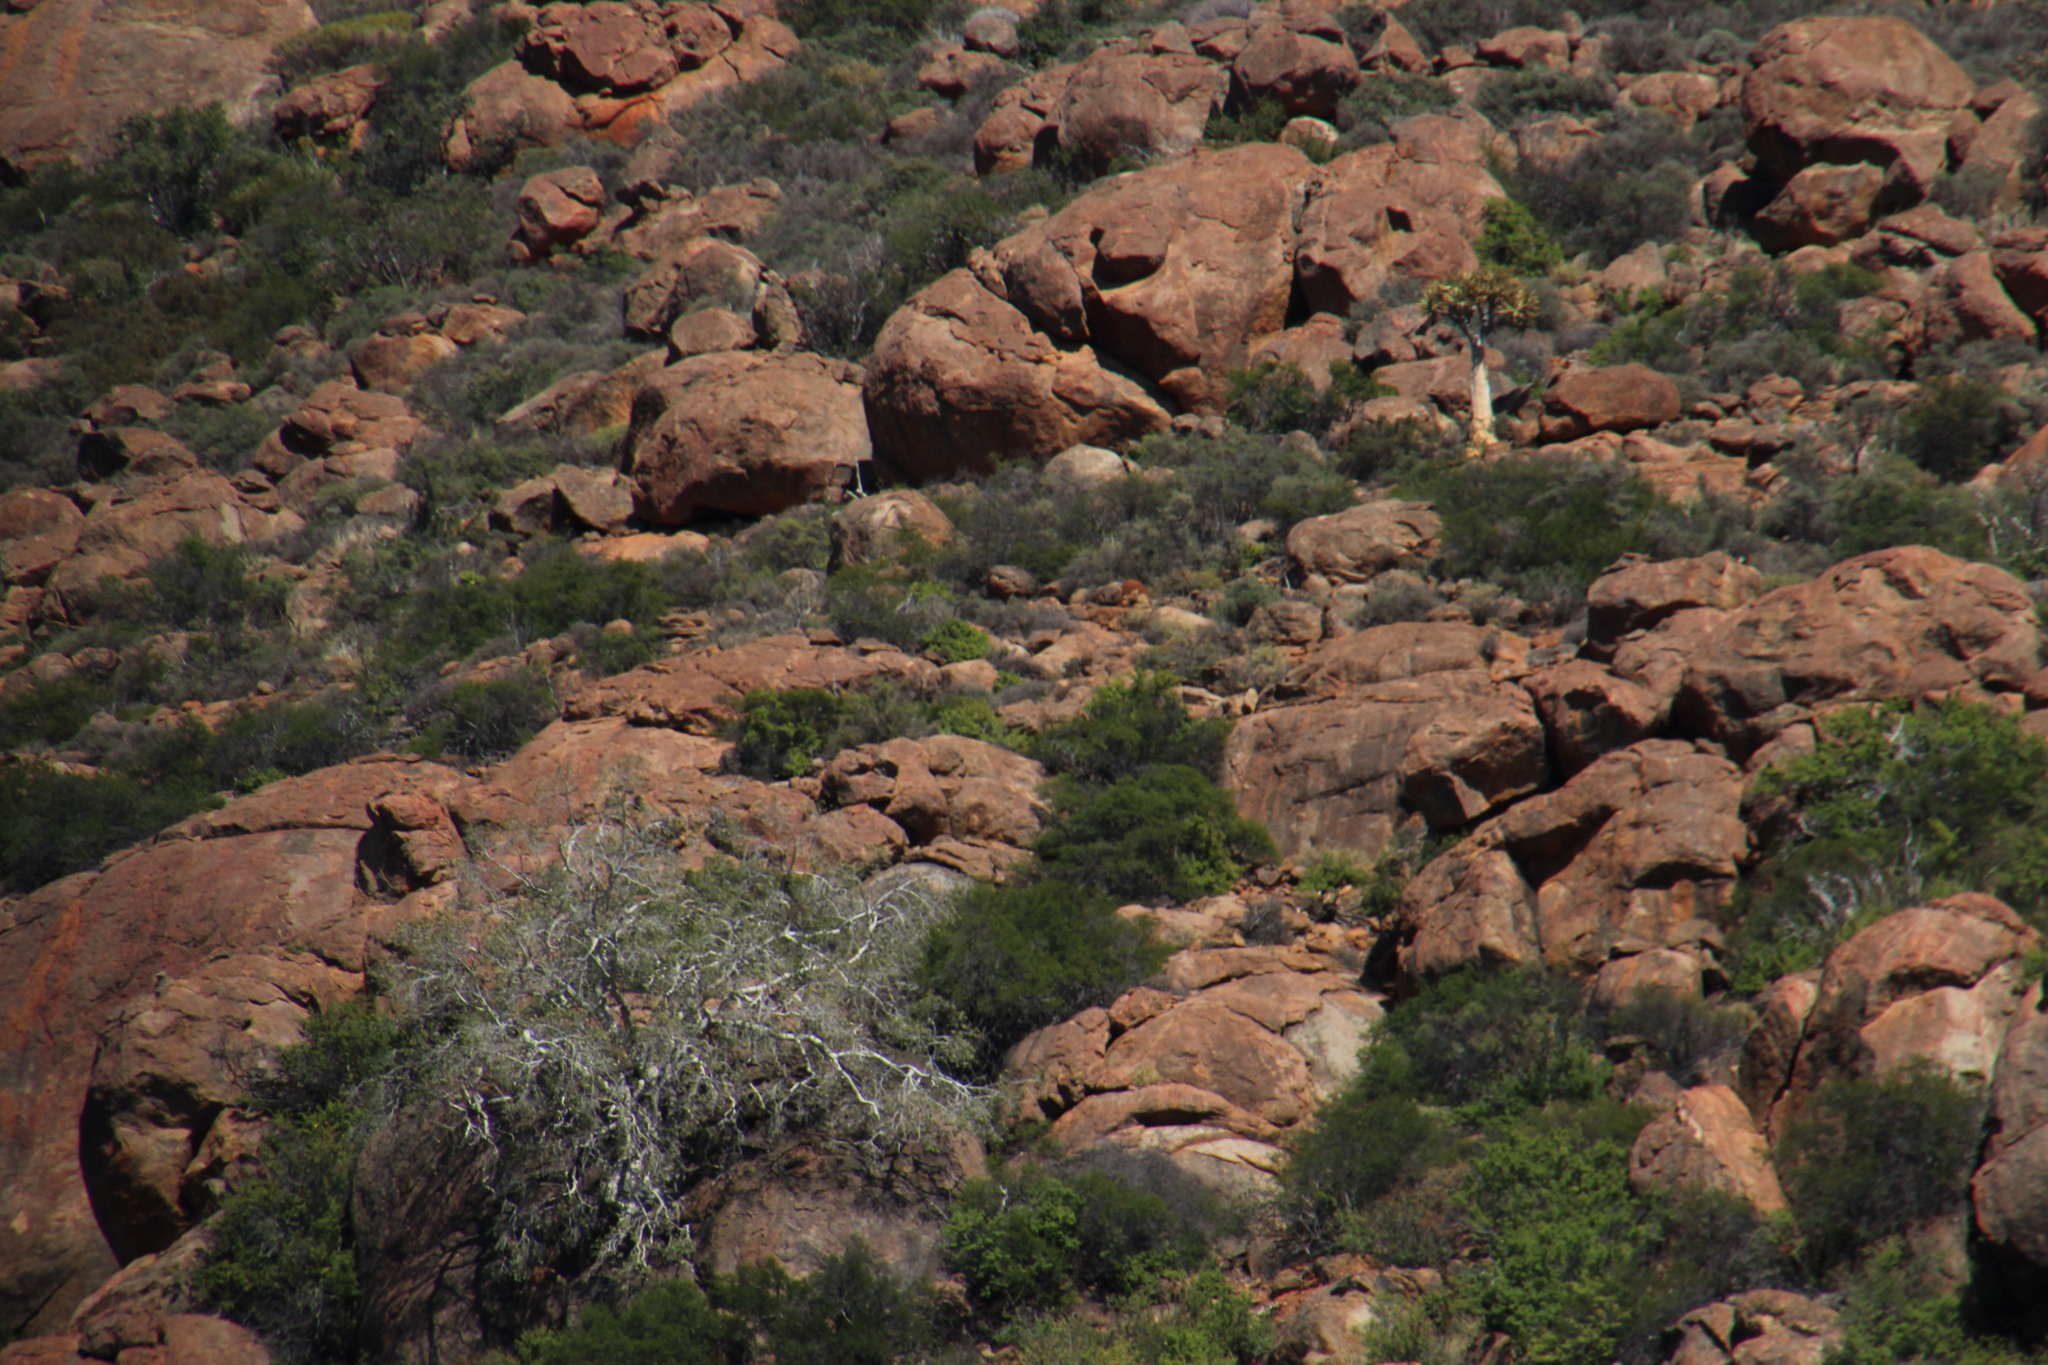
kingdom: Plantae
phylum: Tracheophyta
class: Magnoliopsida
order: Rosales
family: Moraceae
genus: Ficus
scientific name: Ficus cordata
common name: Namaqua rock fig
